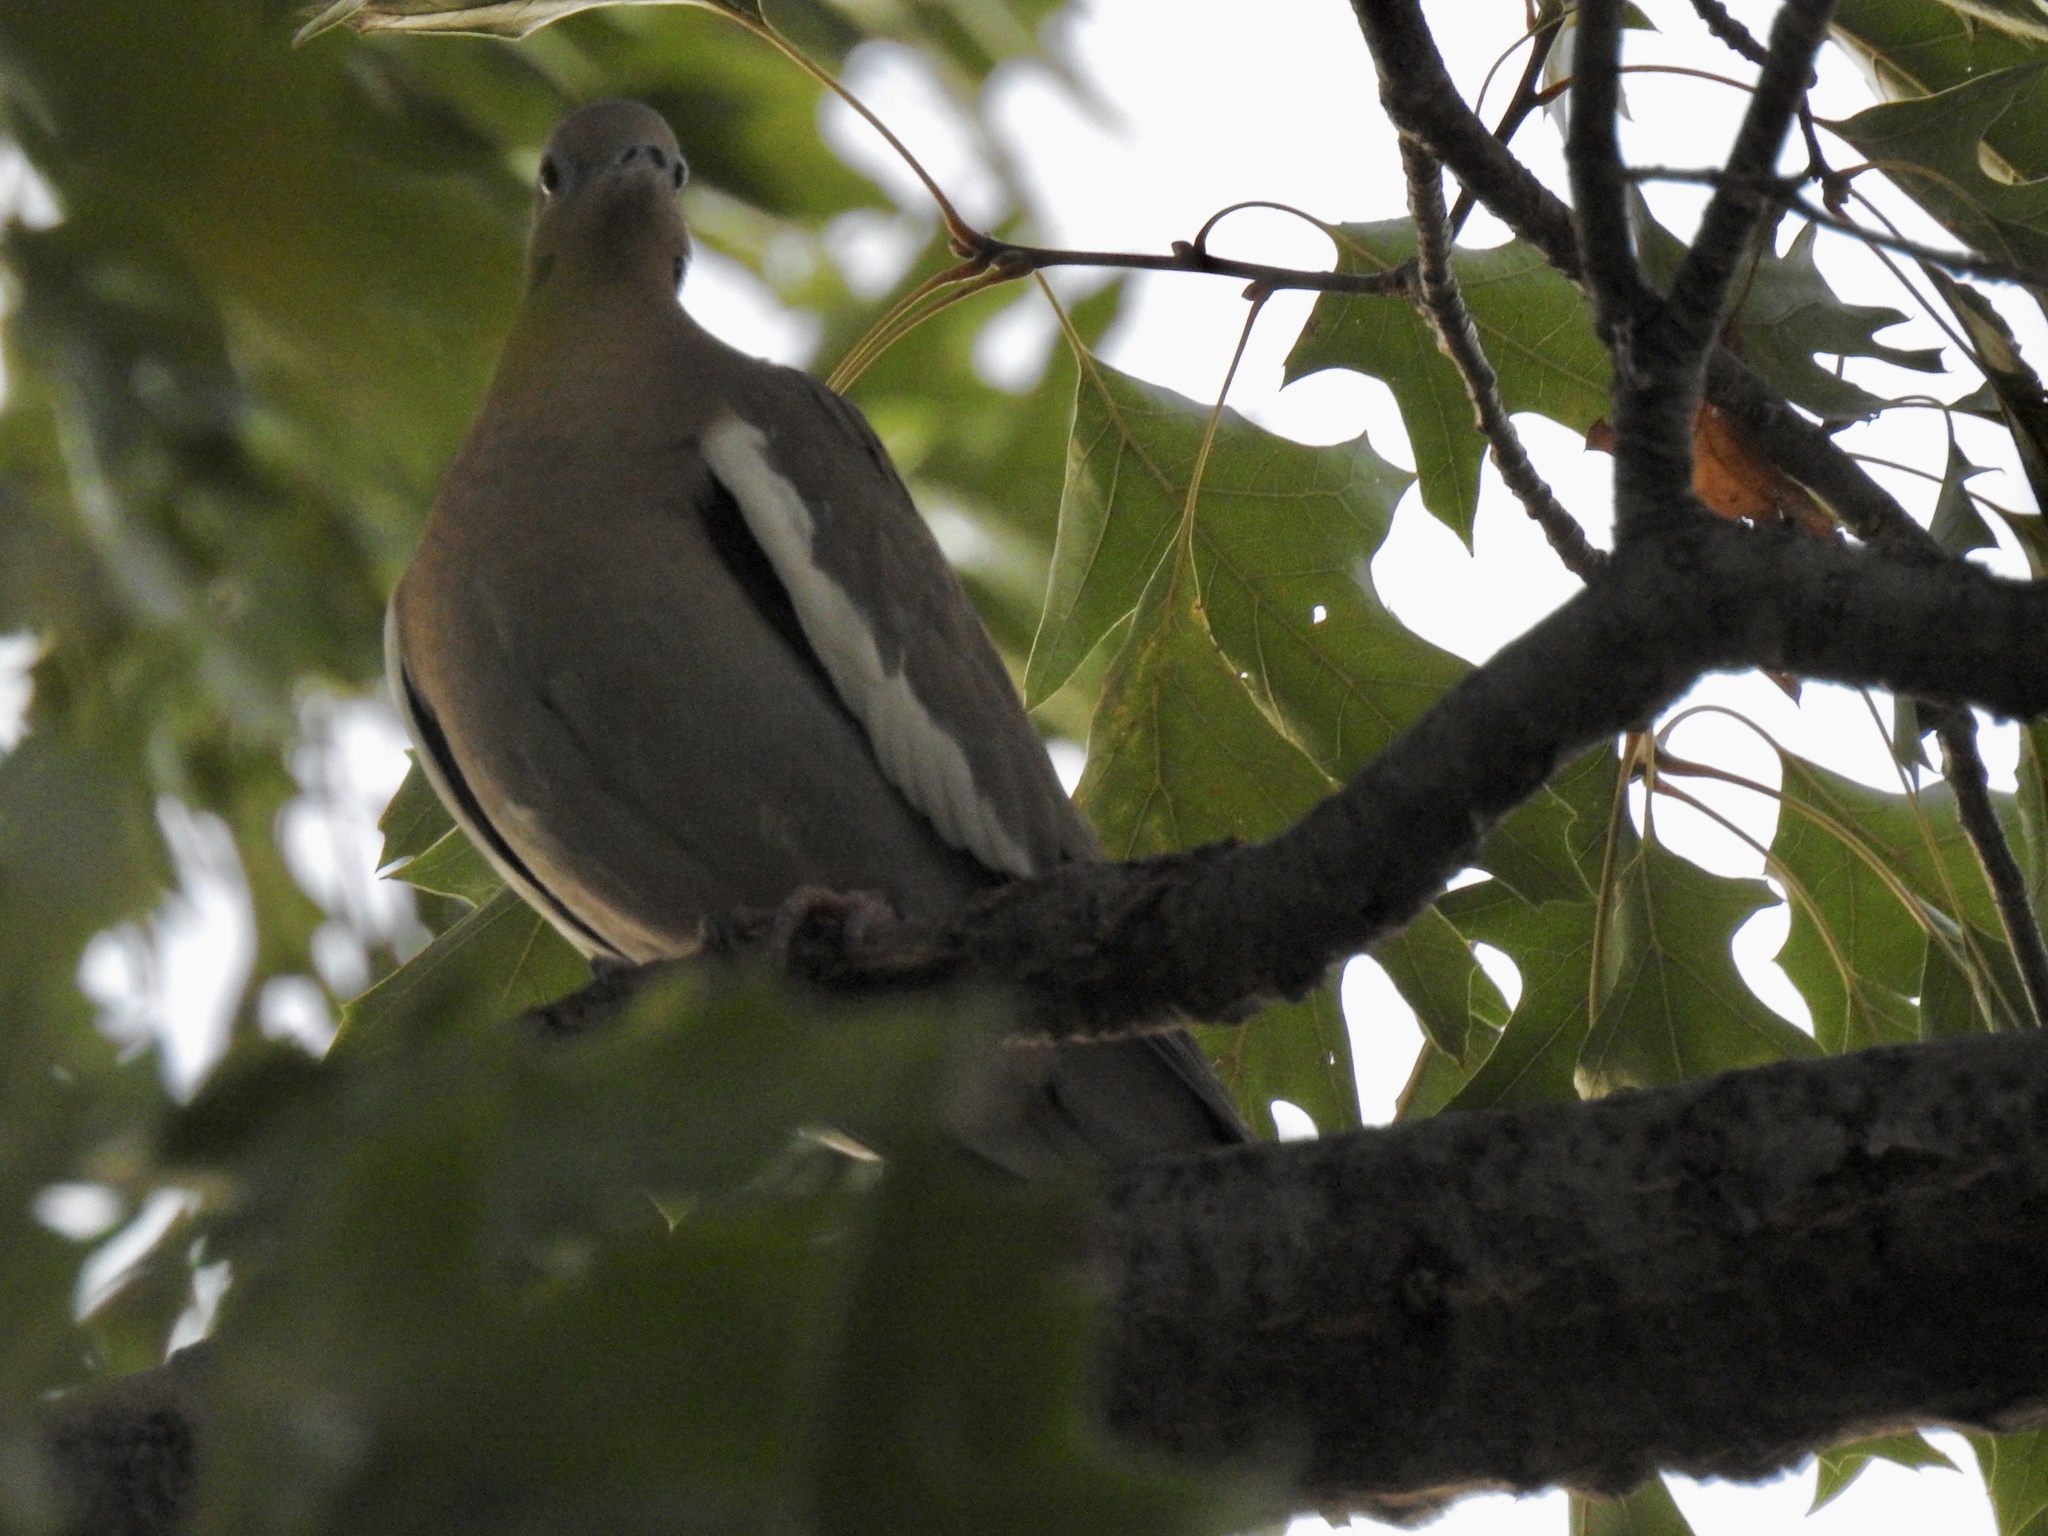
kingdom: Animalia
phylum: Chordata
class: Aves
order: Columbiformes
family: Columbidae
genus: Zenaida
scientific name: Zenaida asiatica
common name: White-winged dove
